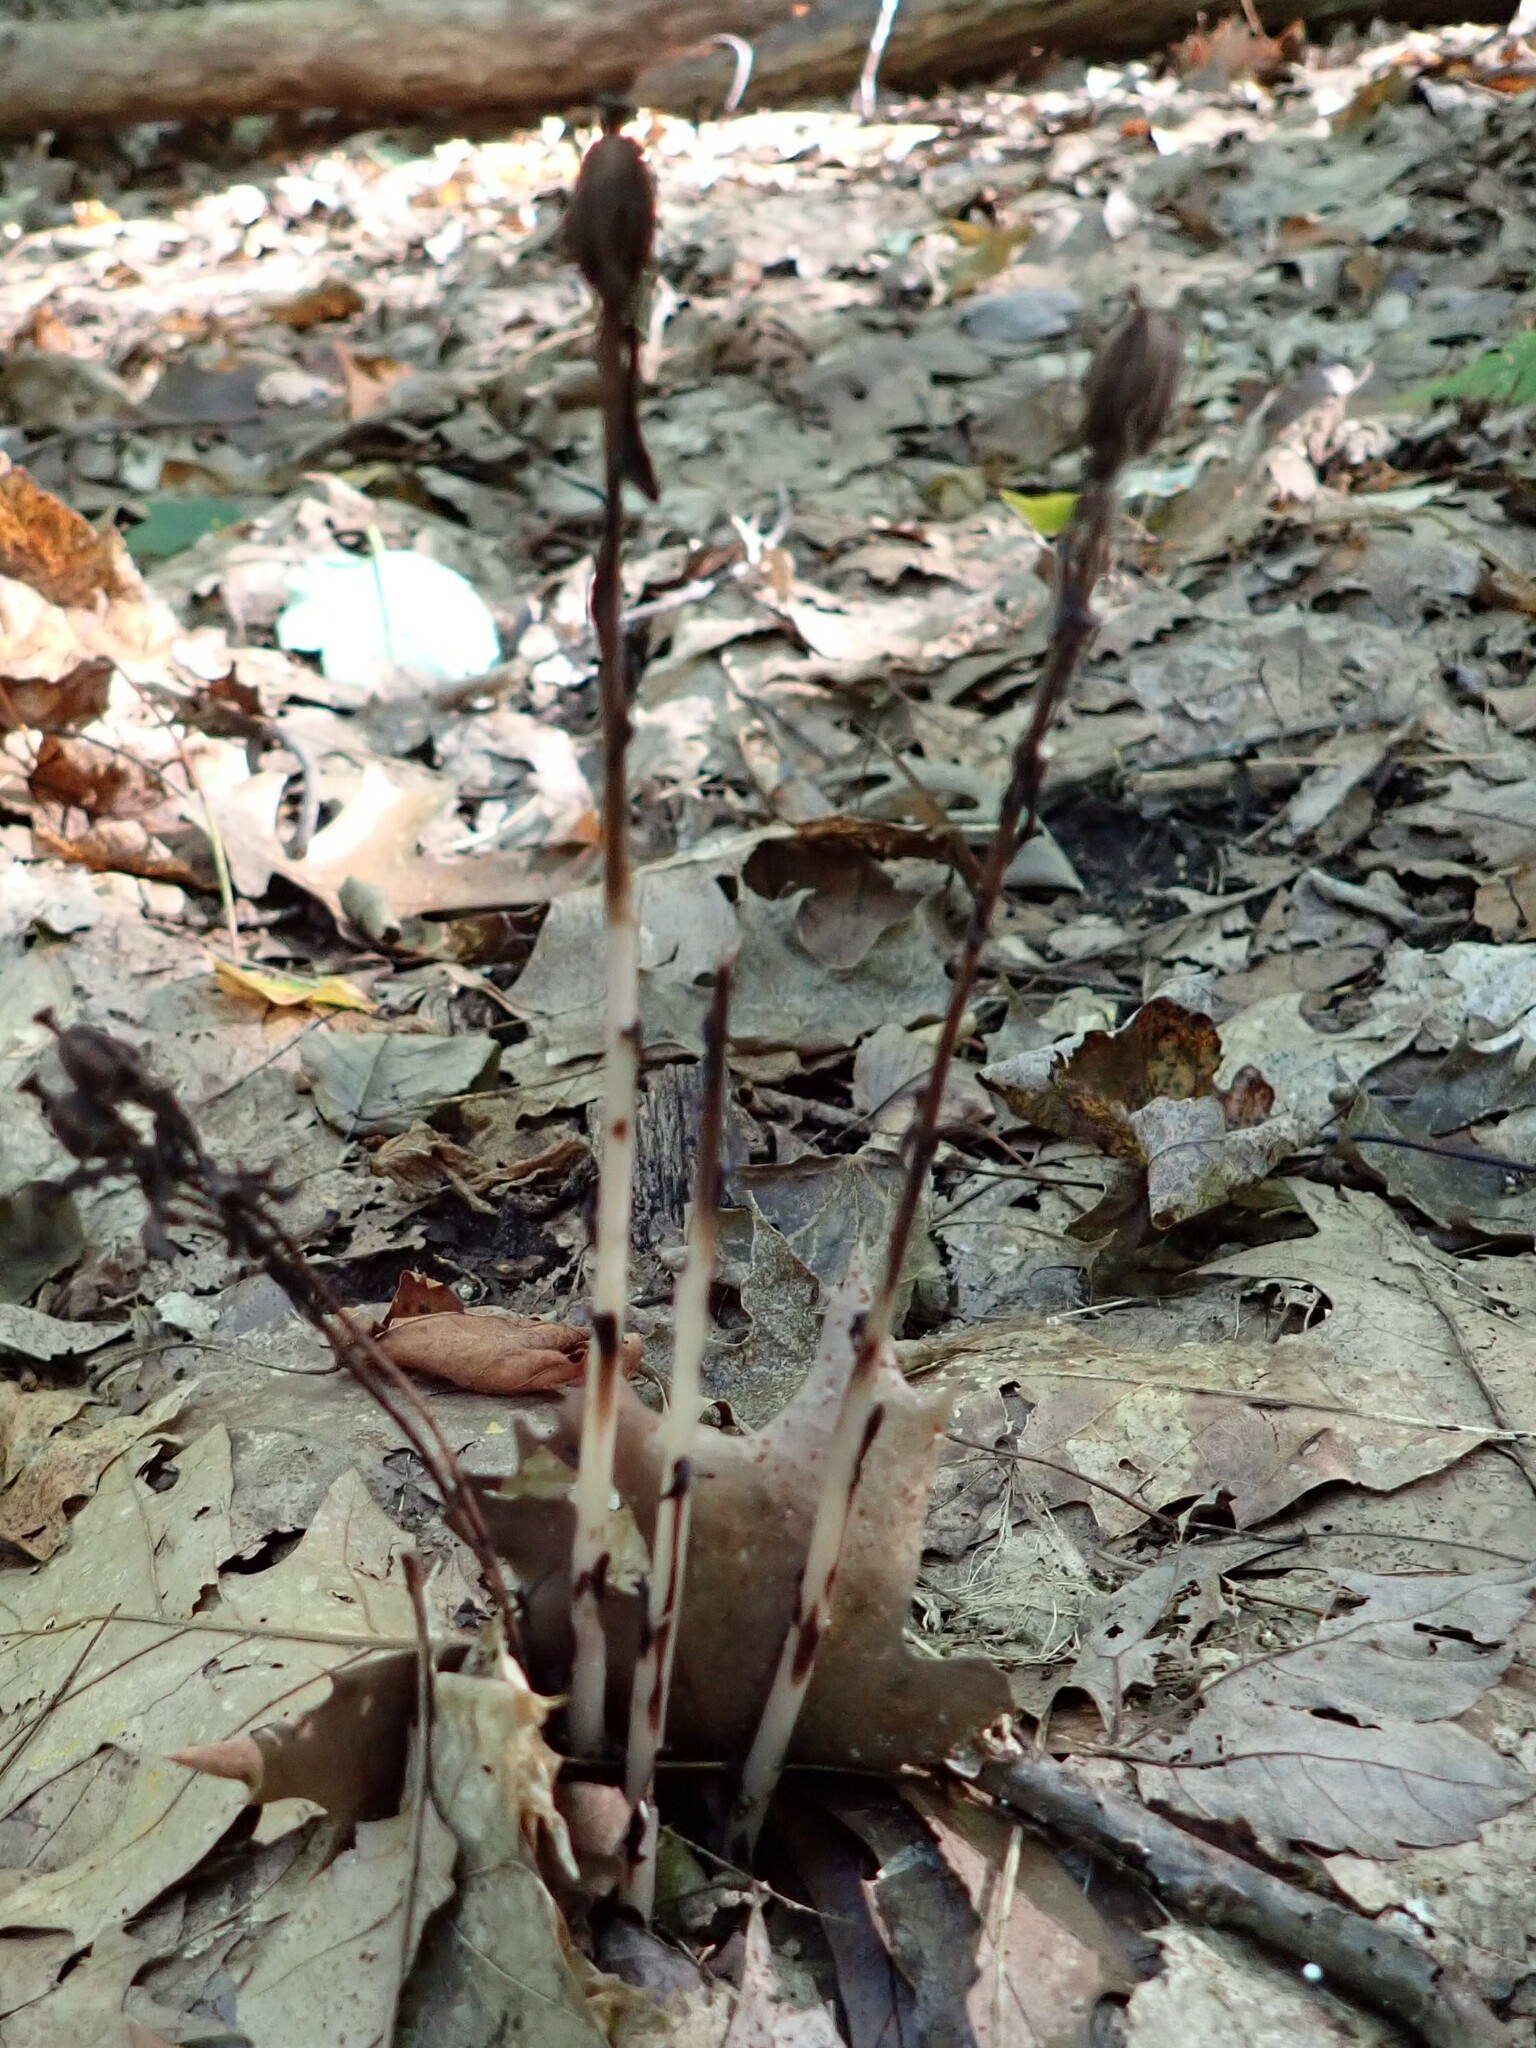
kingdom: Plantae
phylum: Tracheophyta
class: Magnoliopsida
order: Ericales
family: Ericaceae
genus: Monotropa
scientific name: Monotropa uniflora
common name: Convulsion root
